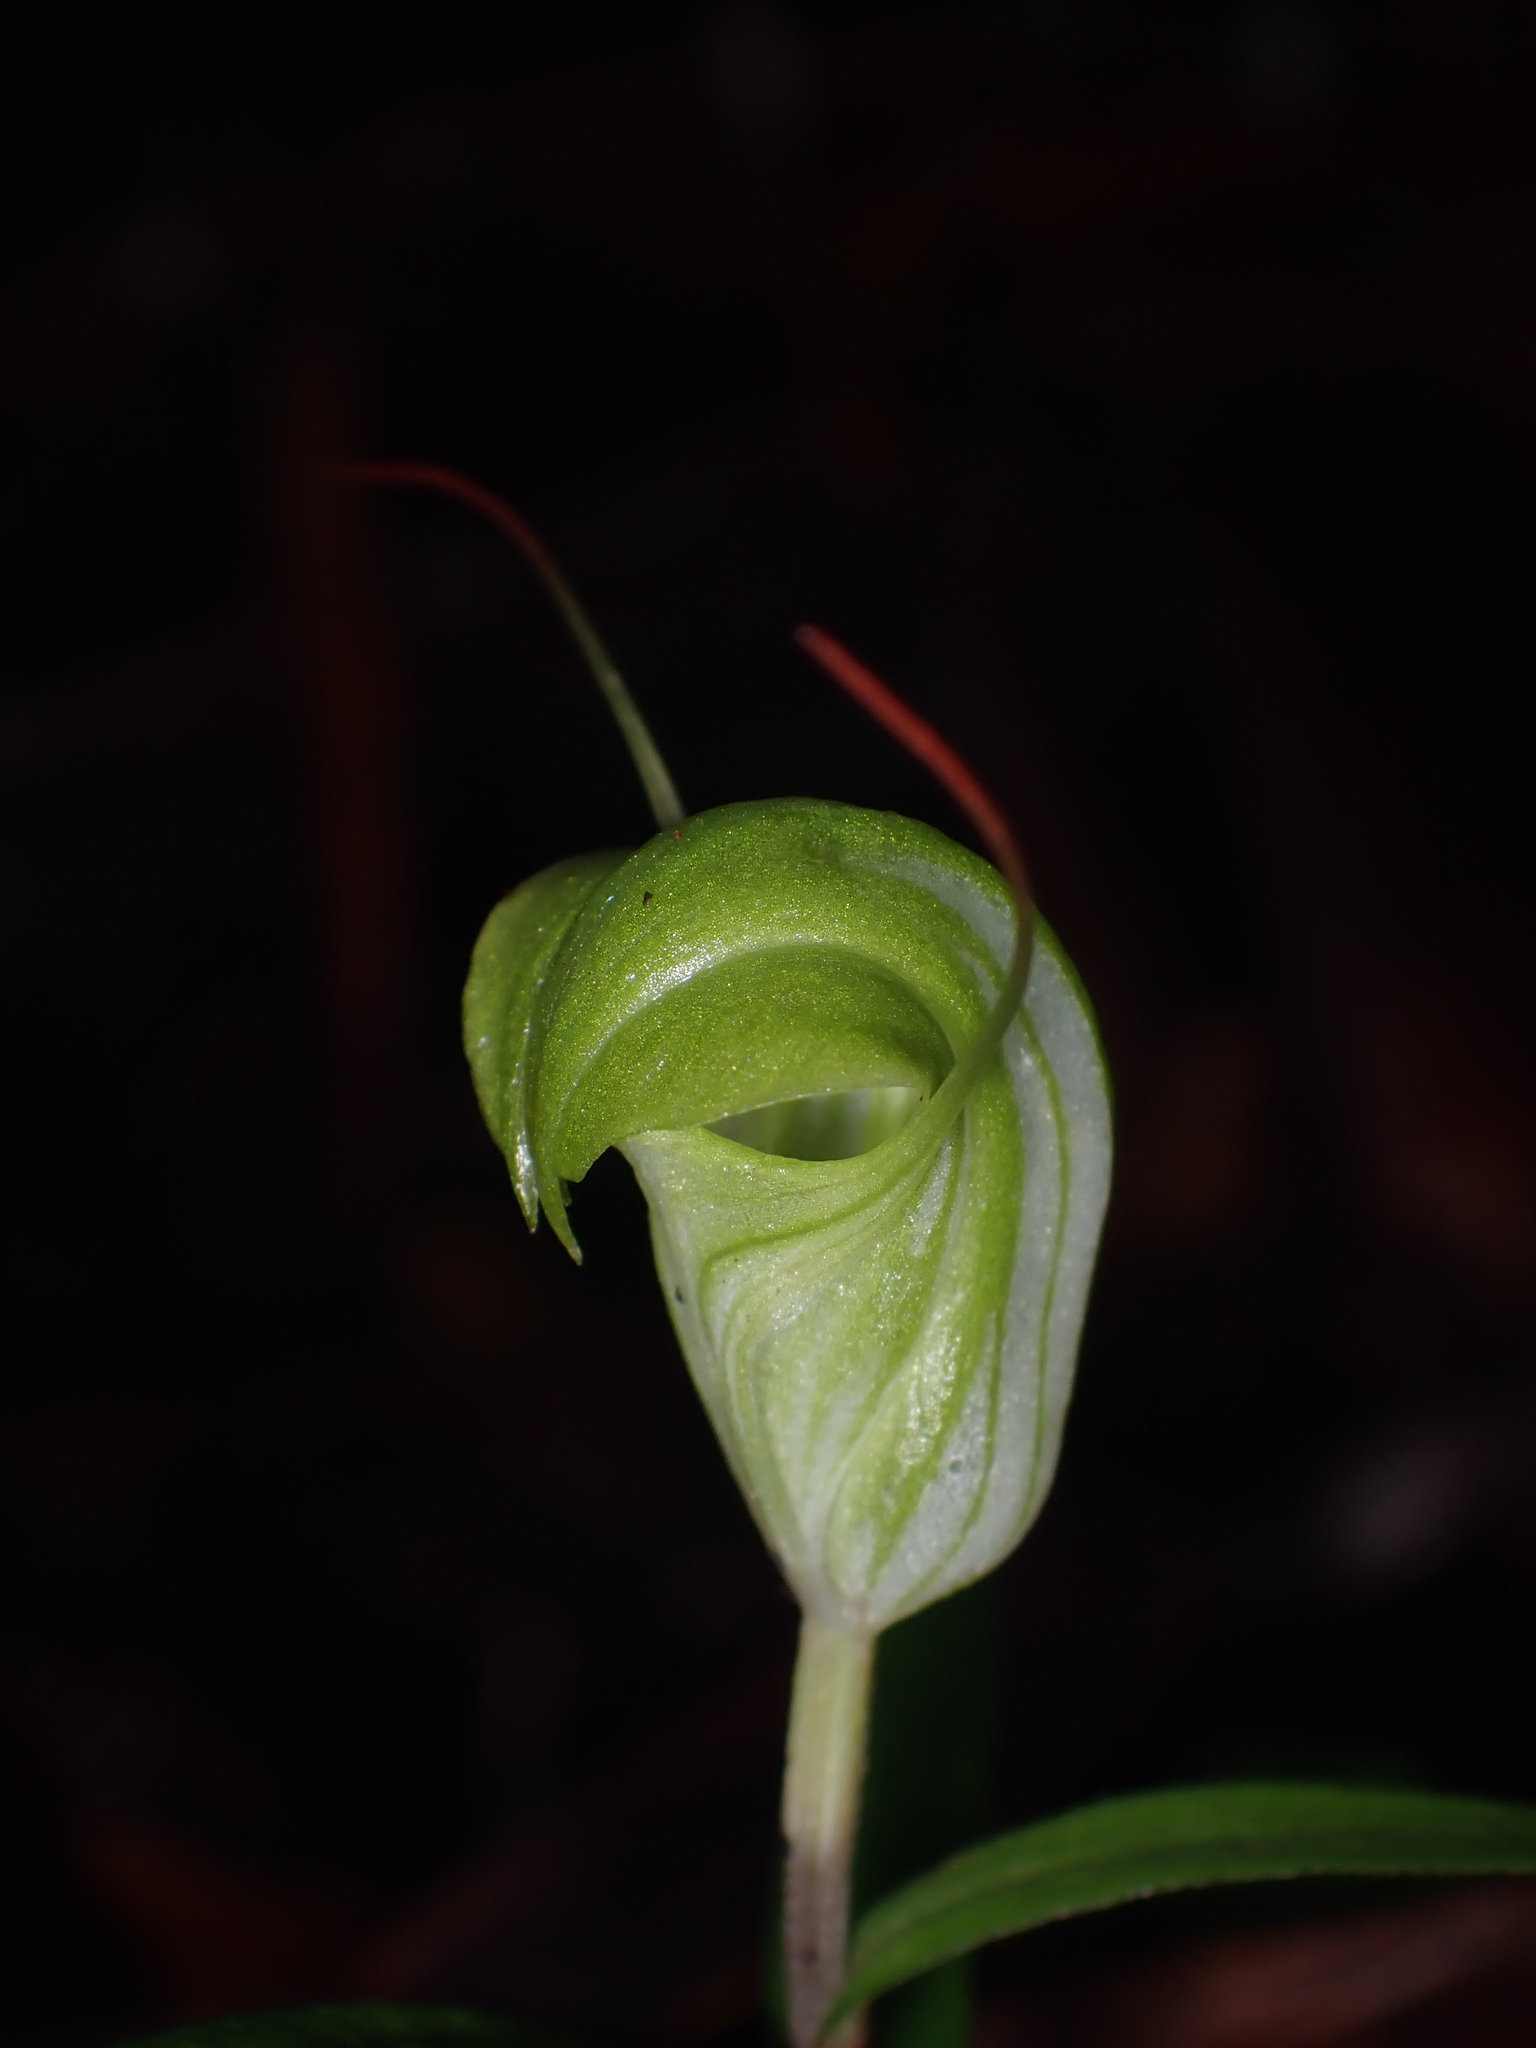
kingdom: Plantae
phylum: Tracheophyta
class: Liliopsida
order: Asparagales
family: Orchidaceae
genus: Pterostylis
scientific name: Pterostylis brumalis
